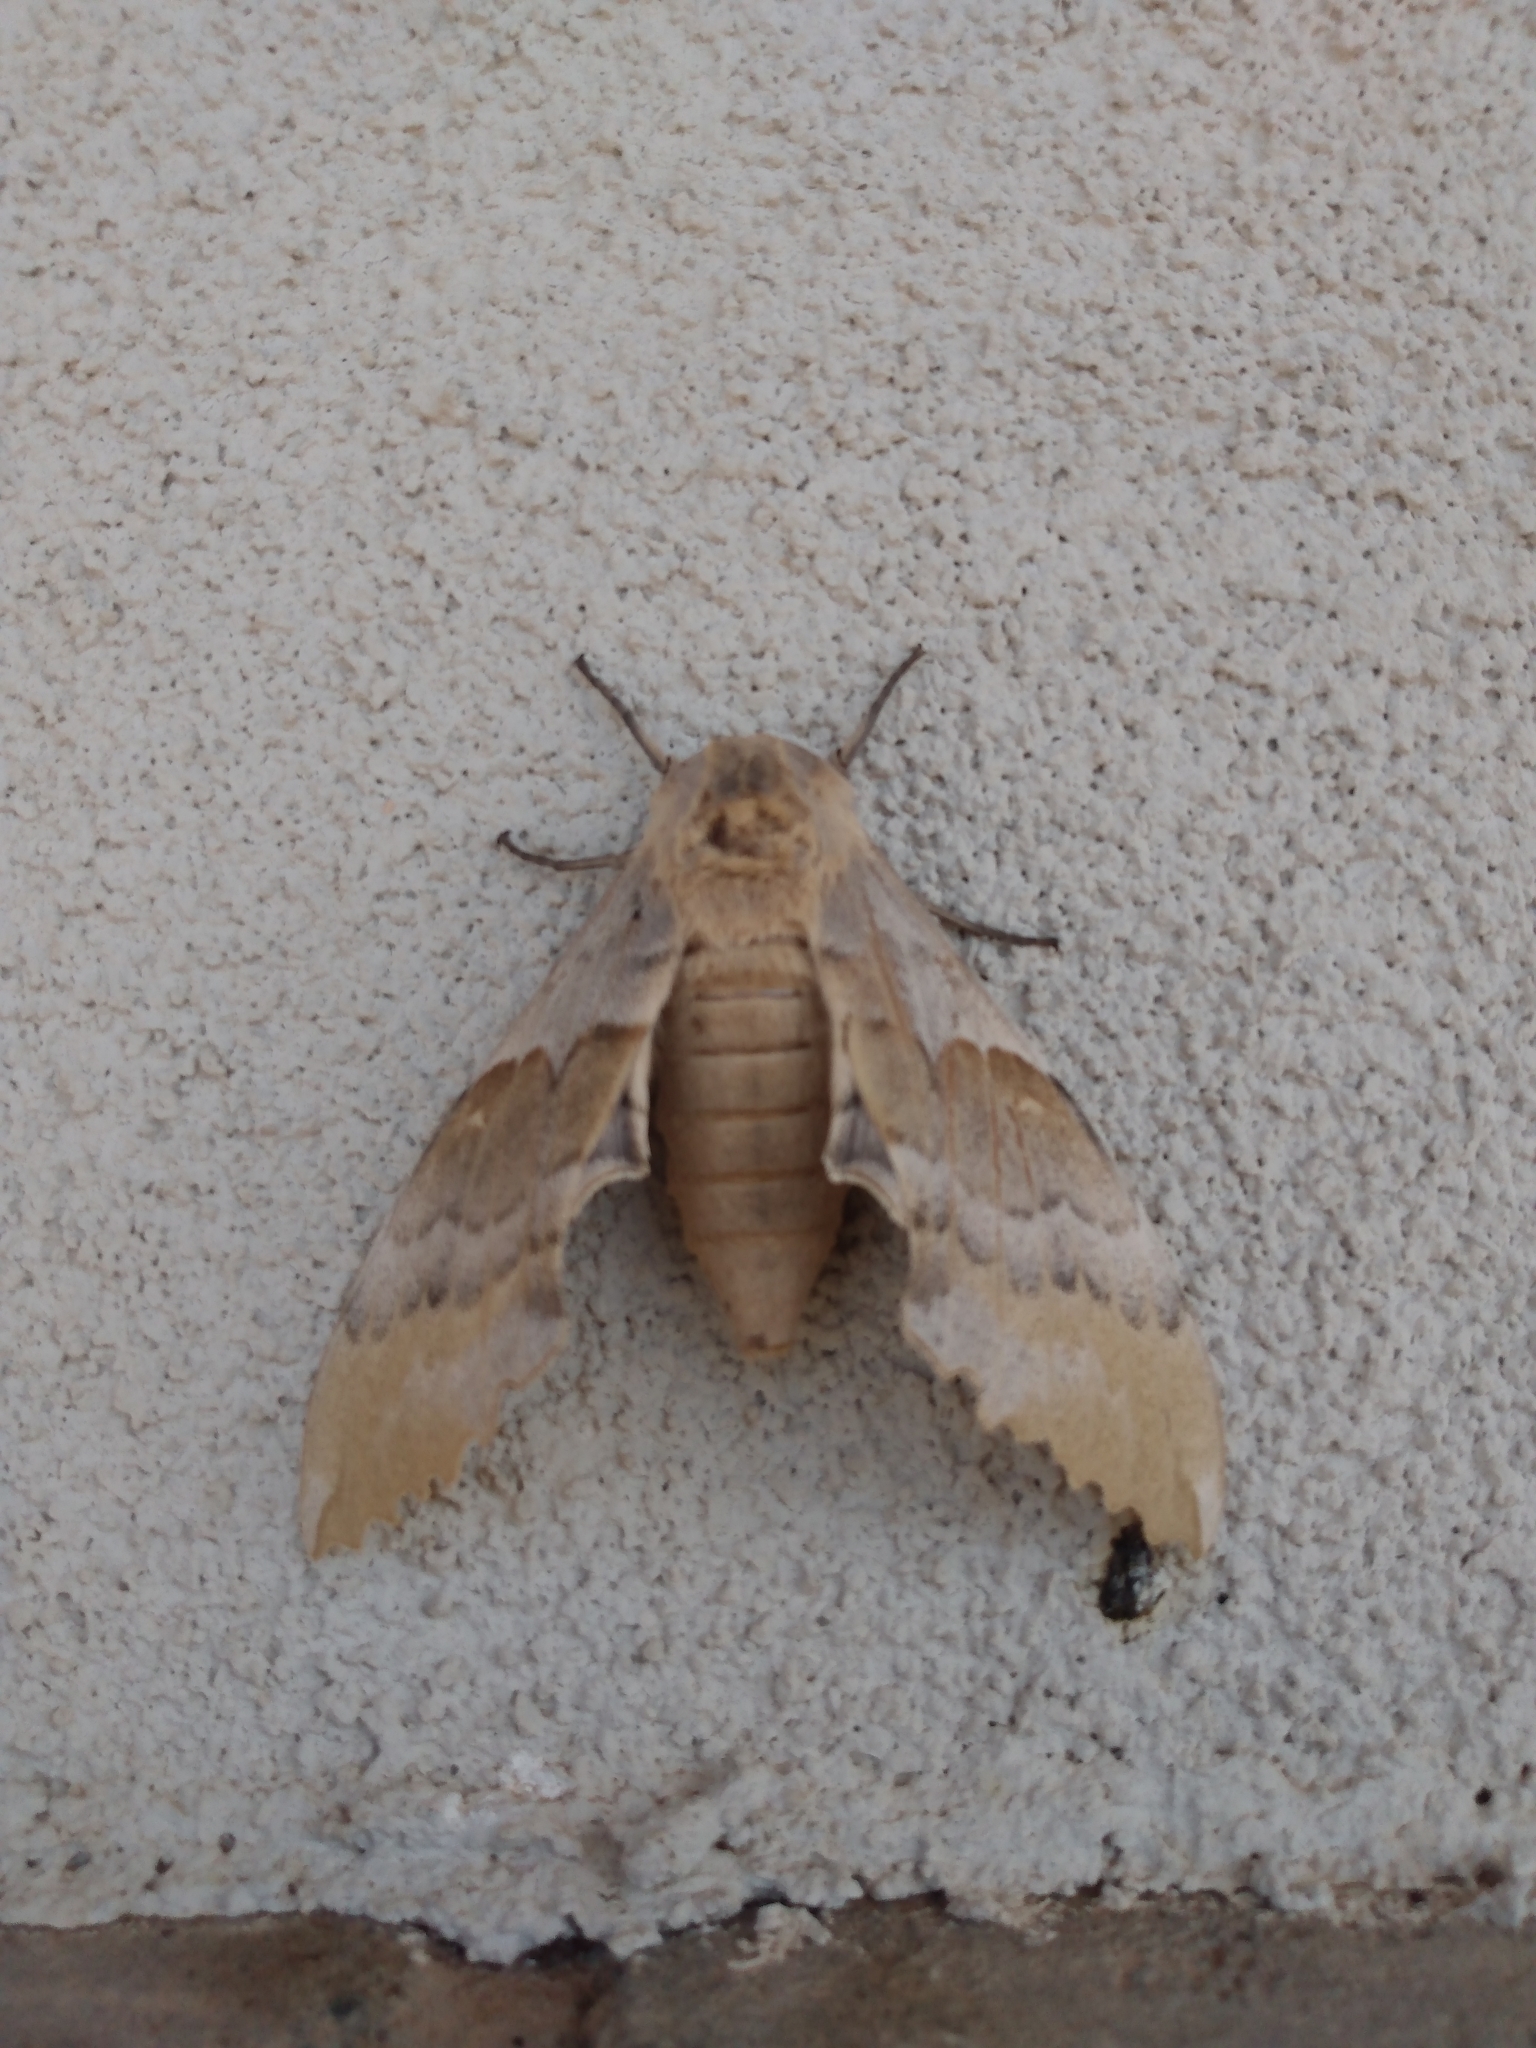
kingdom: Animalia
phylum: Arthropoda
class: Insecta
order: Lepidoptera
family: Sphingidae
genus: Pachysphinx
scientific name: Pachysphinx occidentalis
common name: Western poplar sphinx
